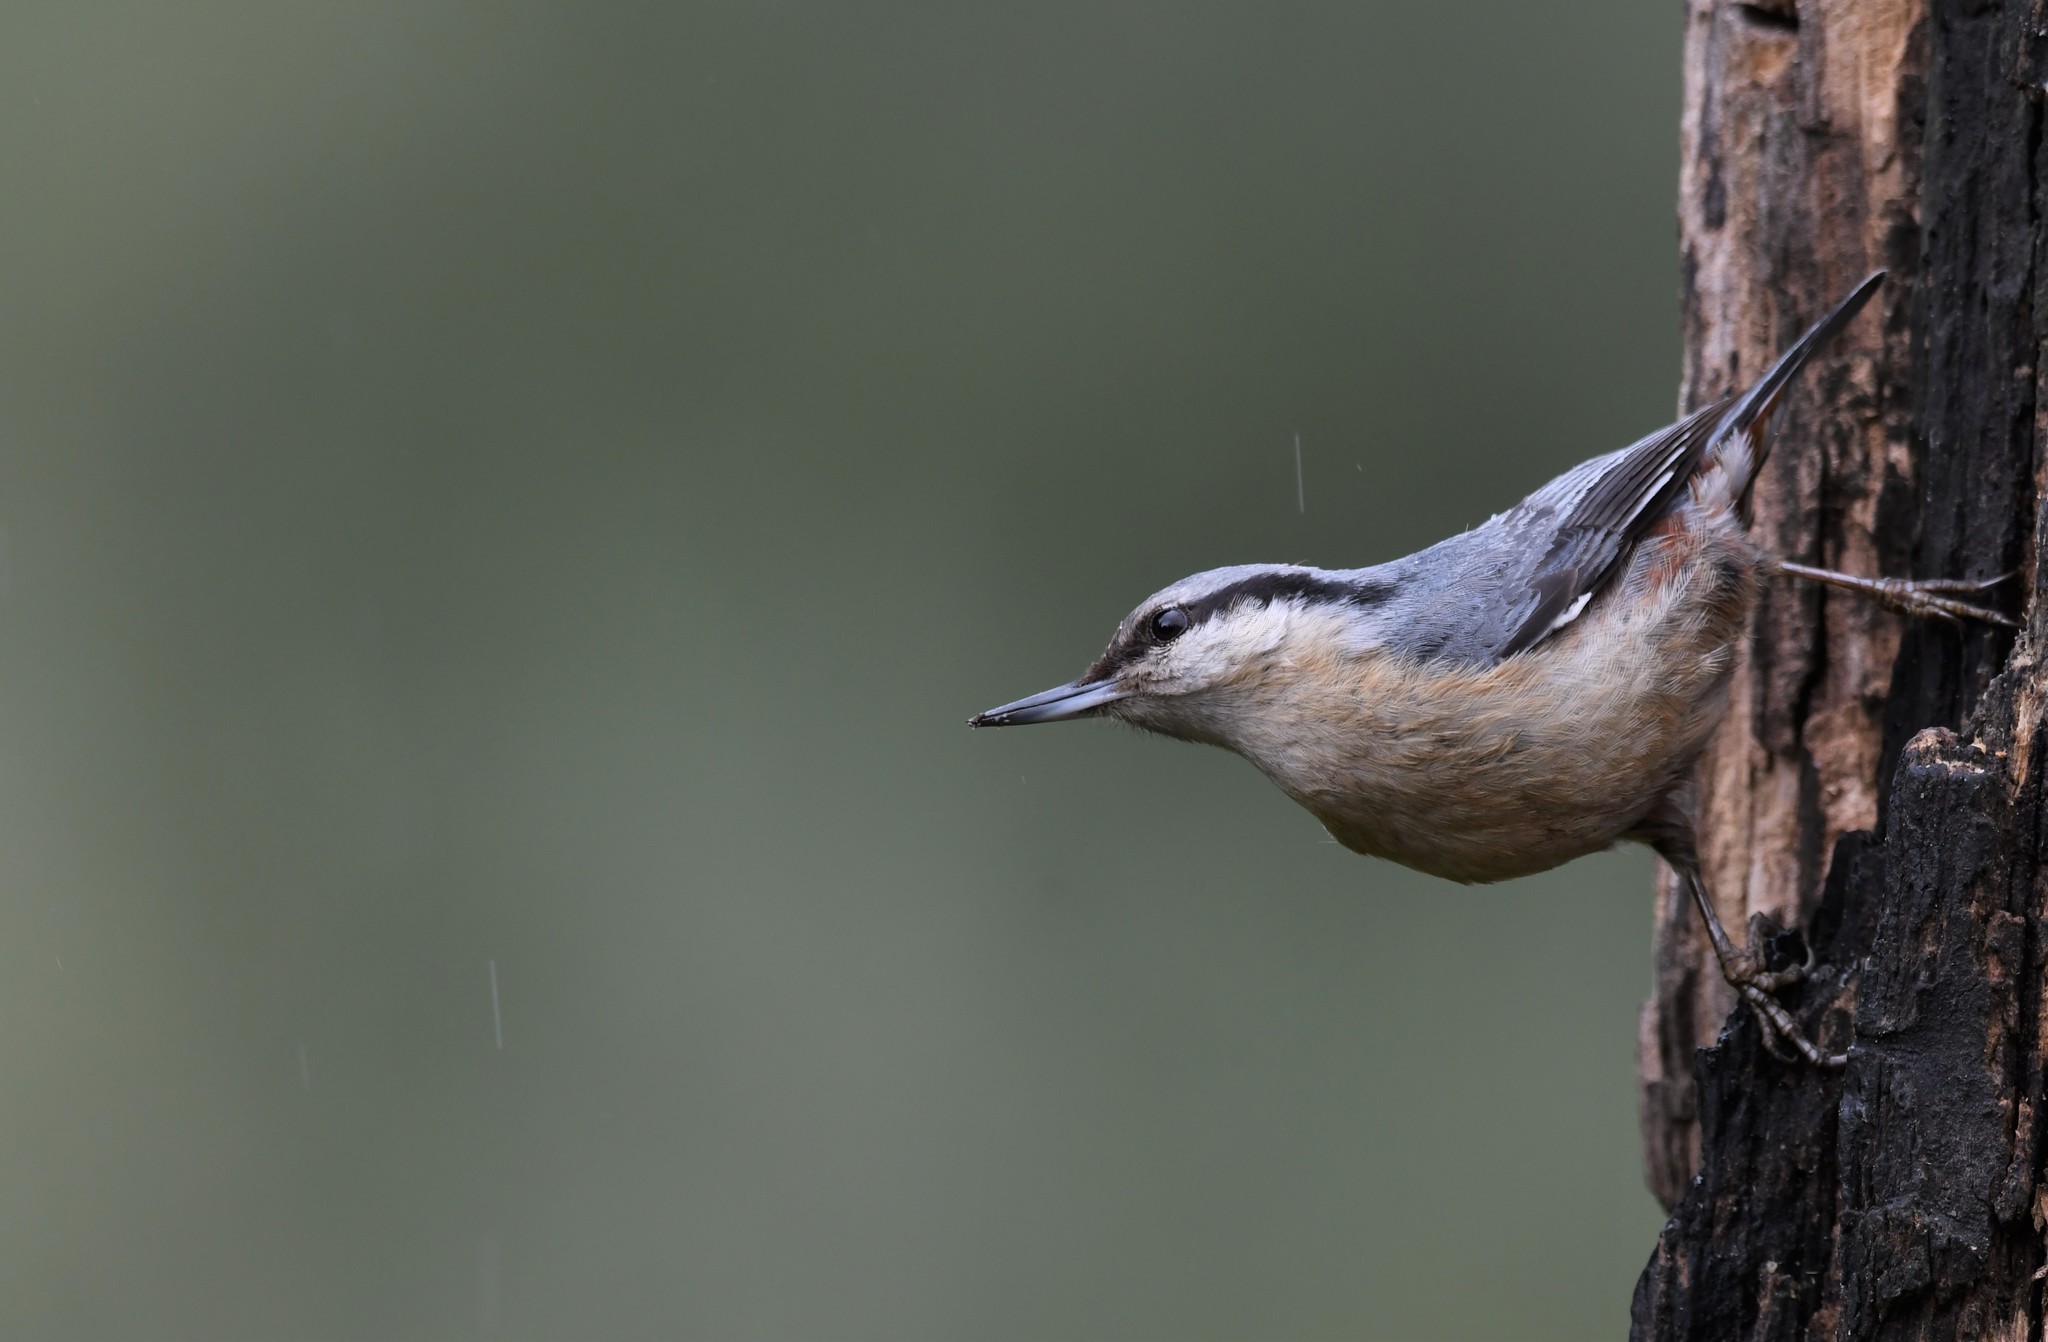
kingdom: Animalia
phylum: Chordata
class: Aves
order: Passeriformes
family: Sittidae
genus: Sitta
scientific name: Sitta europaea
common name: Eurasian nuthatch
